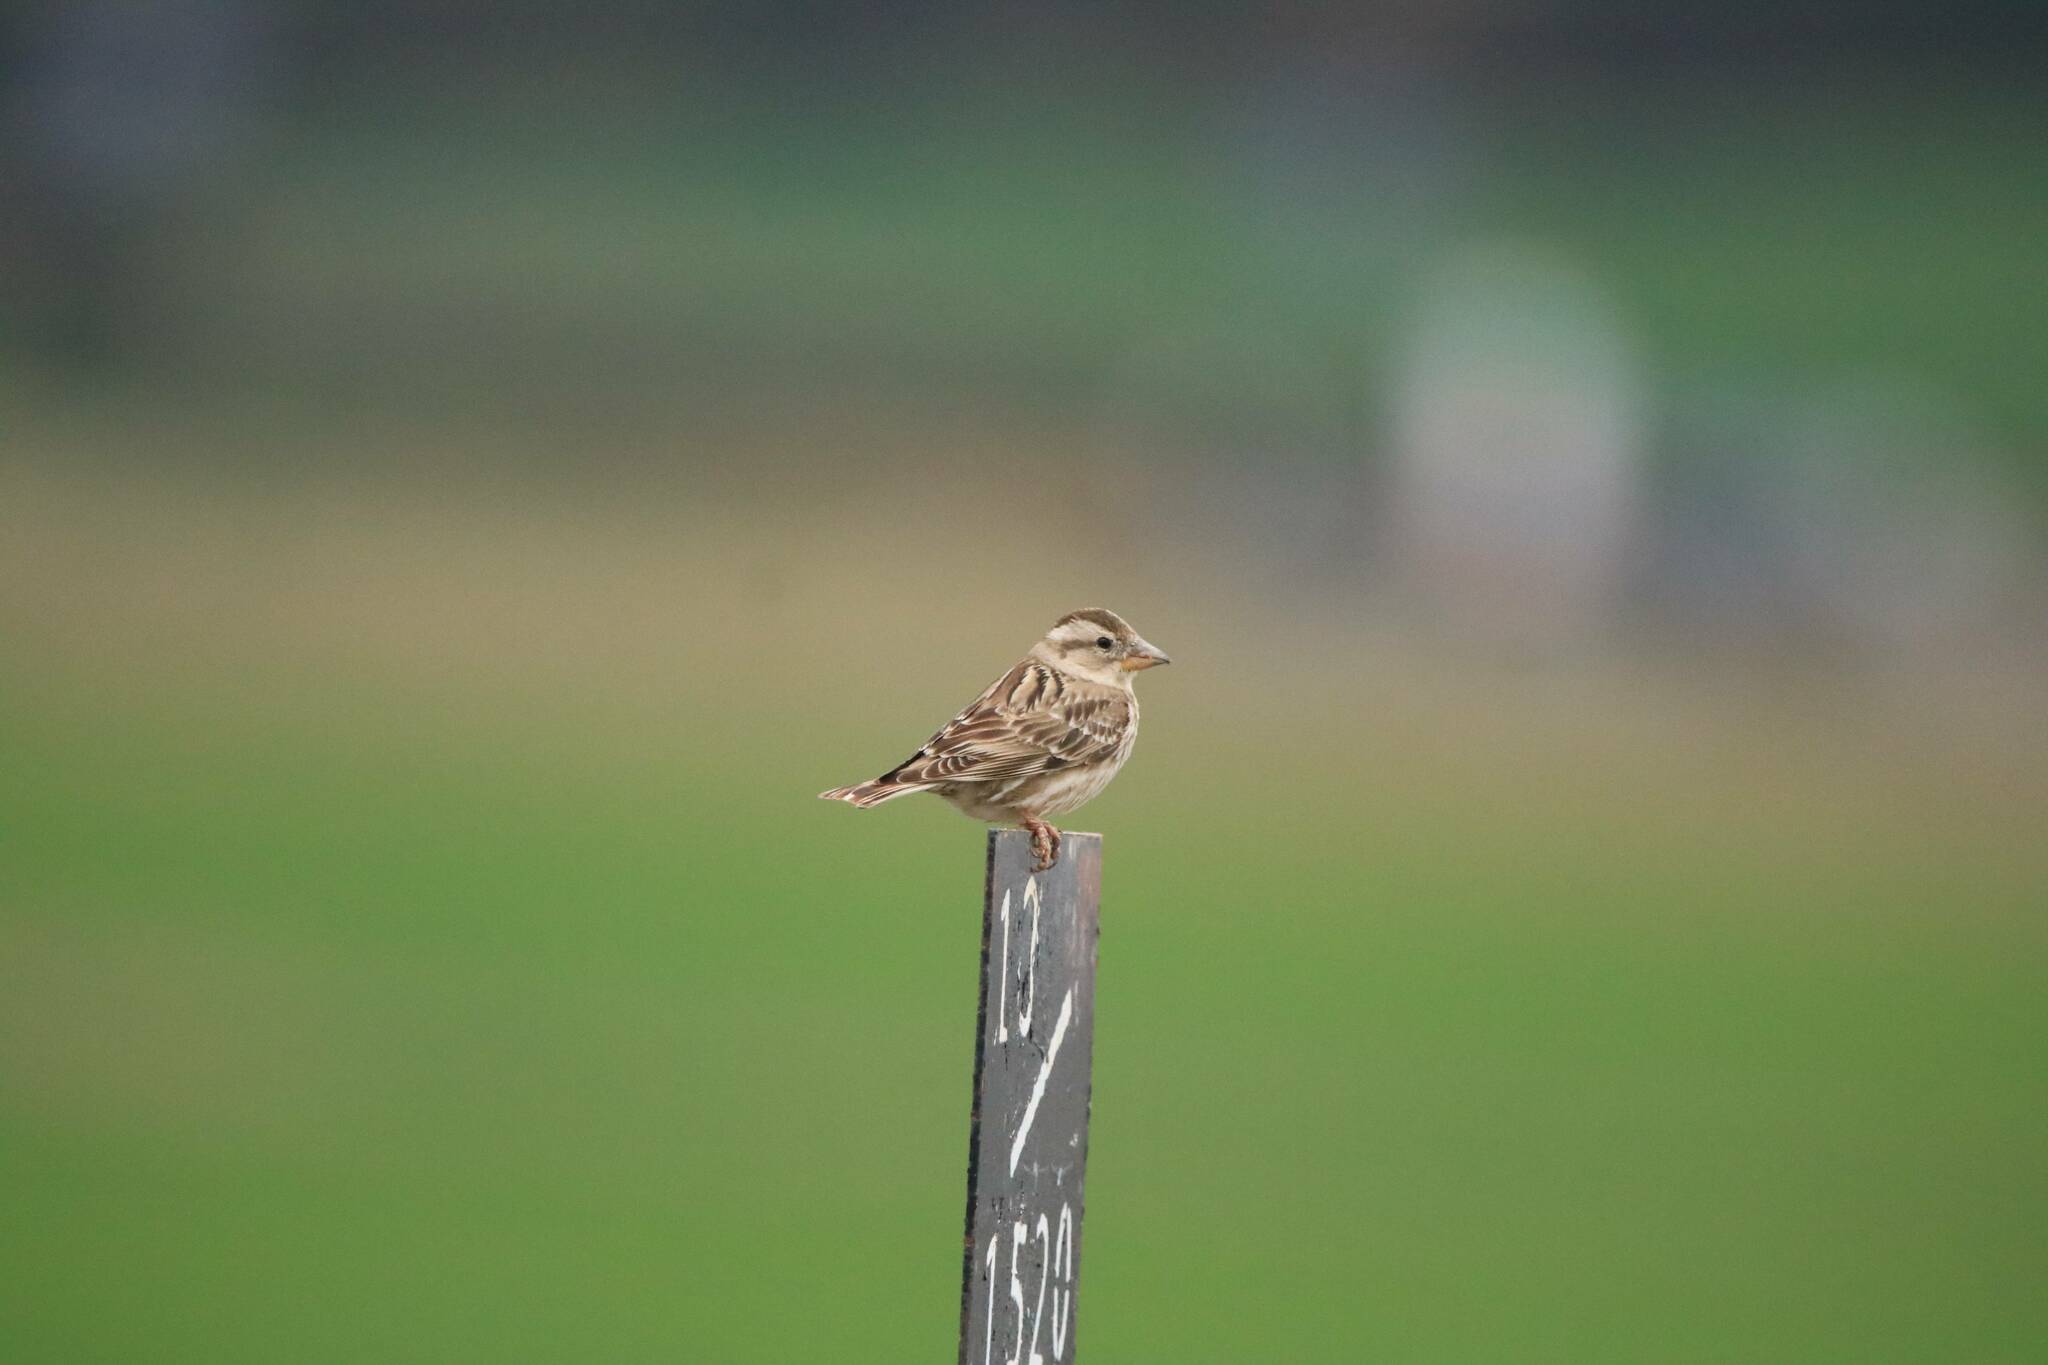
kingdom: Animalia
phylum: Chordata
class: Aves
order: Passeriformes
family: Passeridae
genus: Petronia
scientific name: Petronia petronia
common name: Rock sparrow
